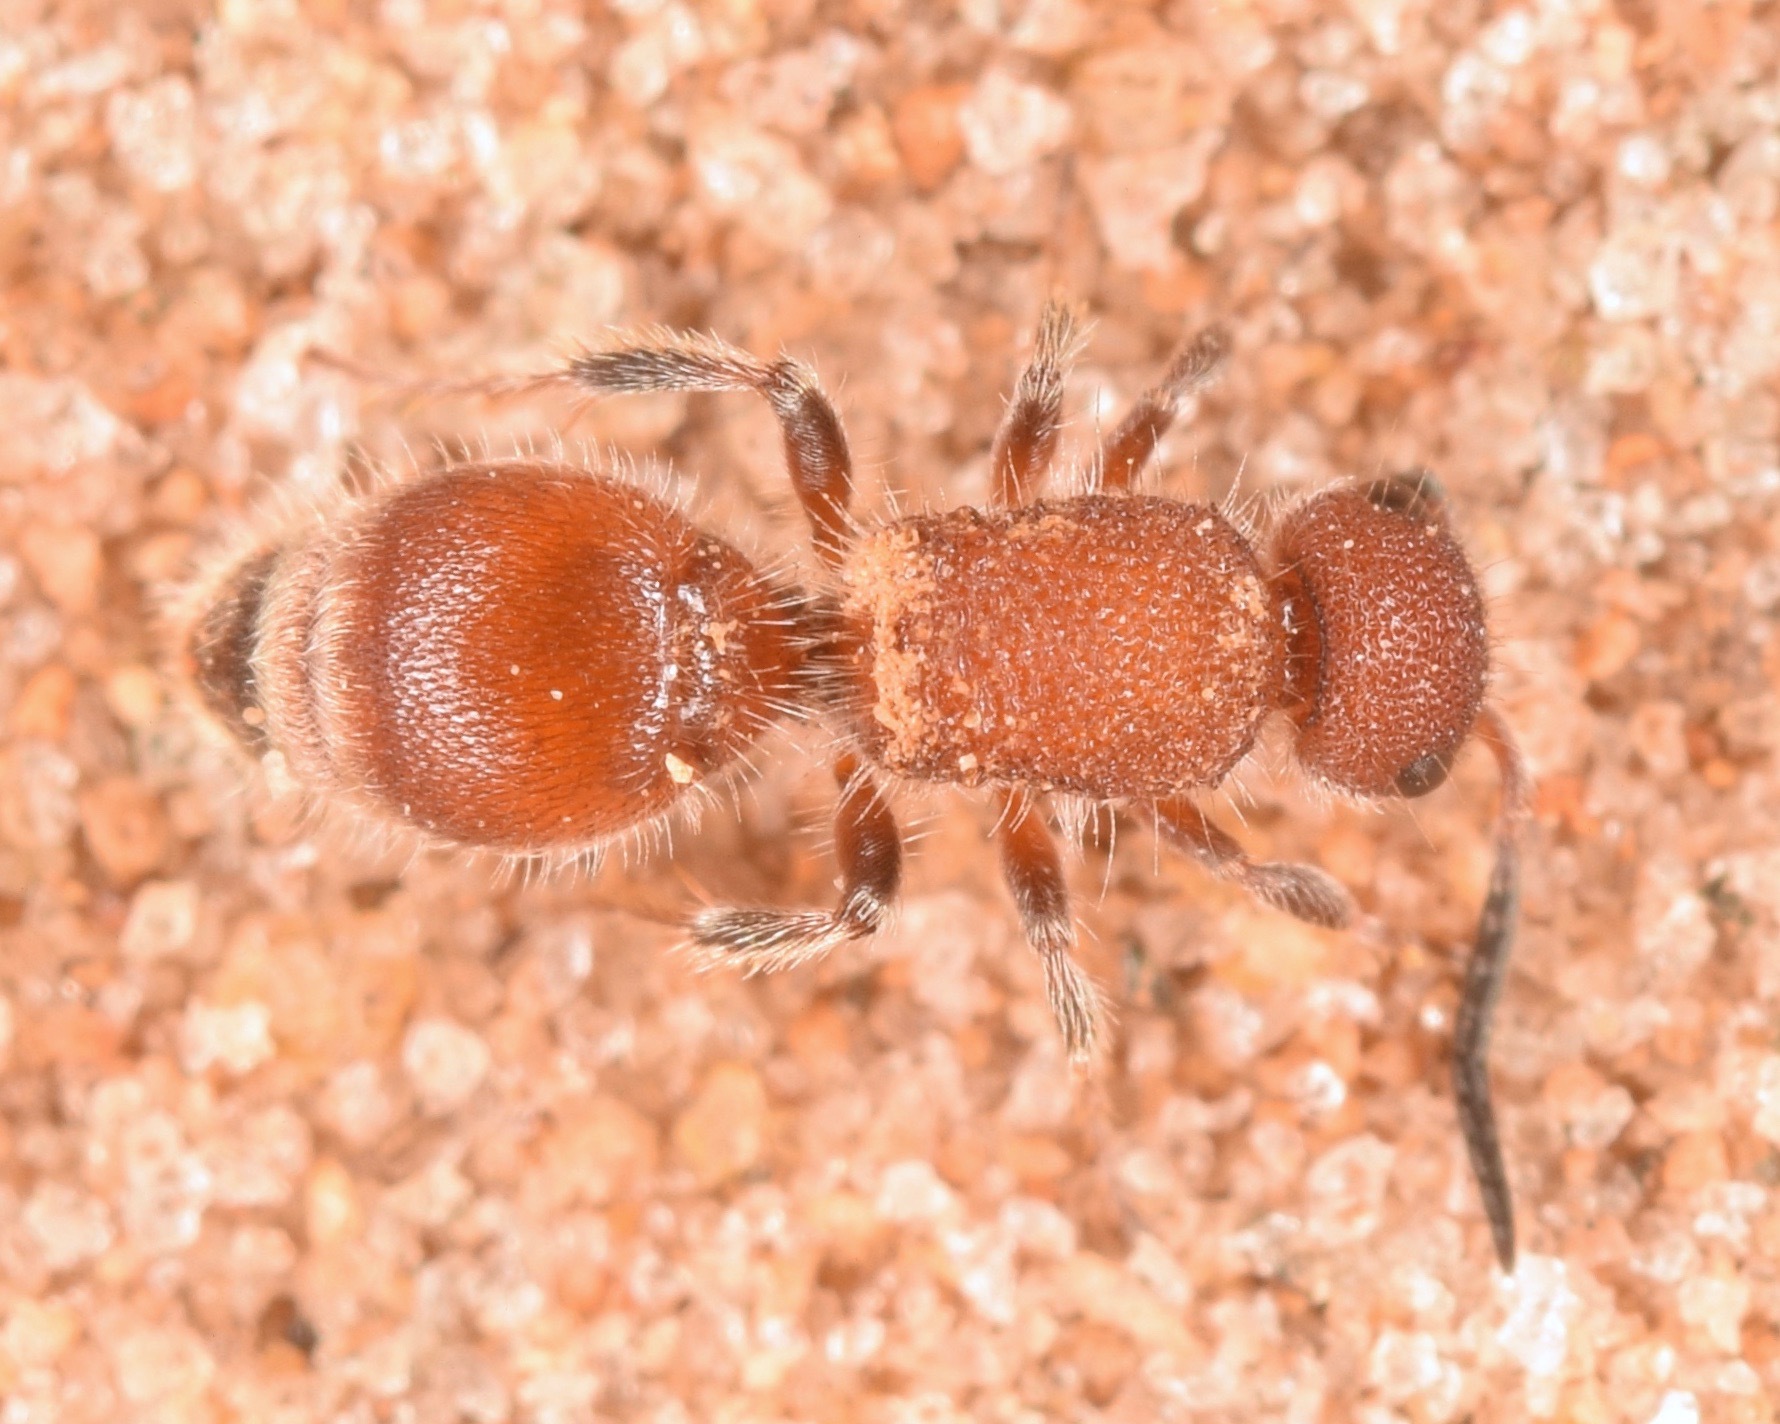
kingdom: Animalia
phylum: Arthropoda
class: Insecta
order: Hymenoptera
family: Mutillidae
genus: Photomorphus
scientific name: Photomorphus
